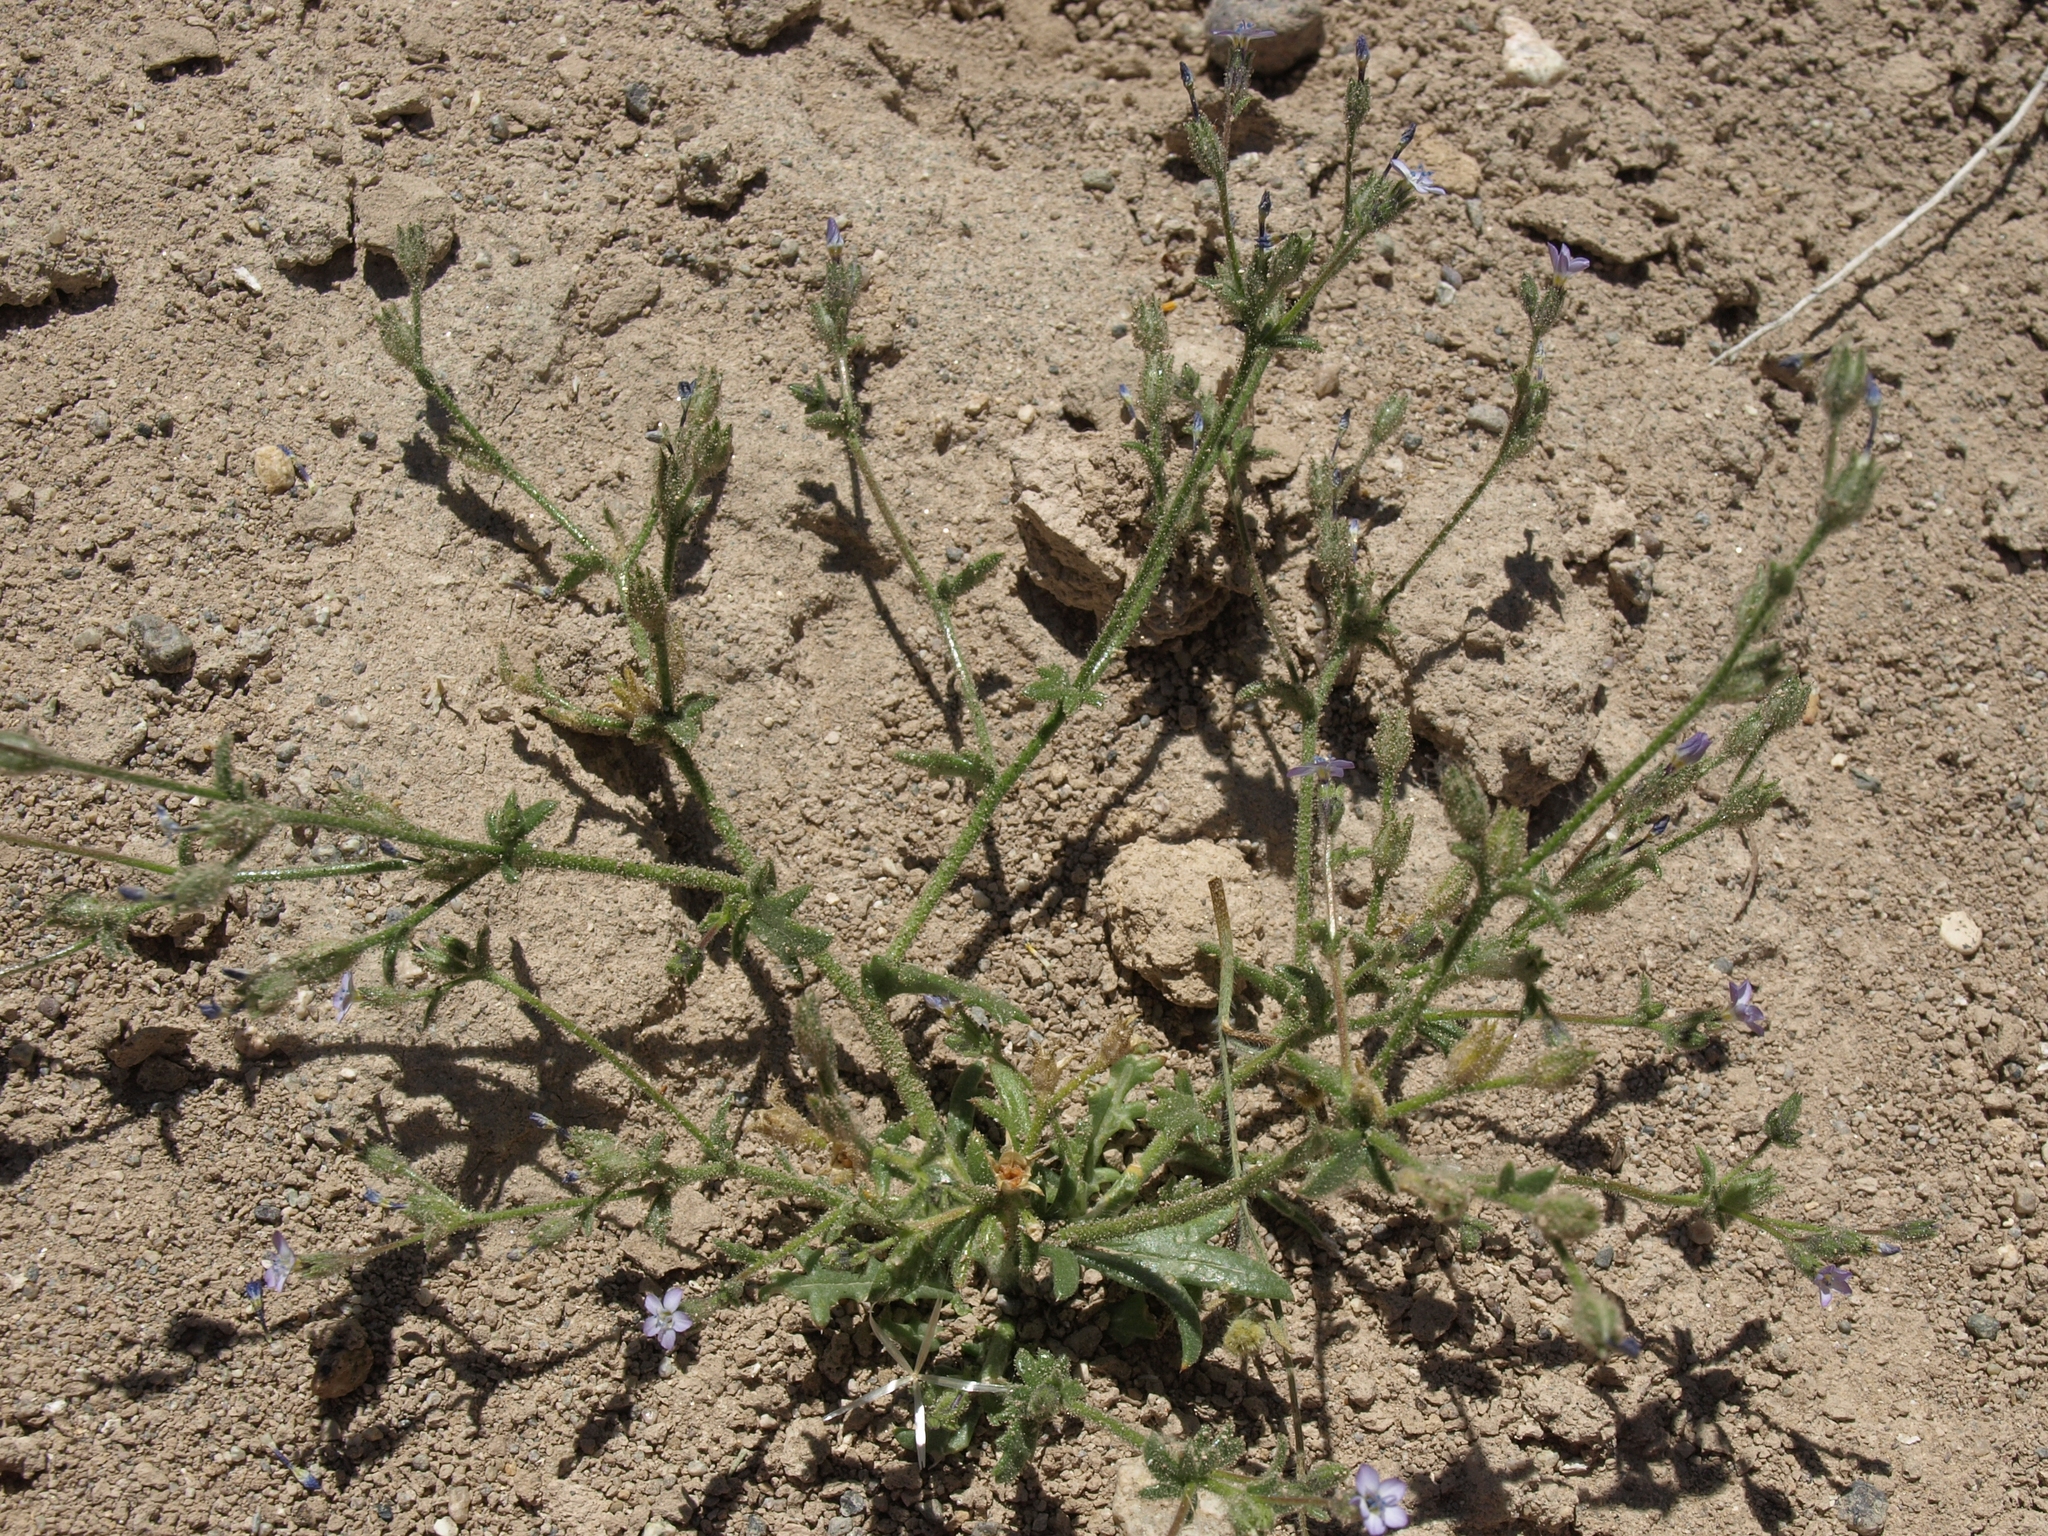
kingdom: Plantae
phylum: Tracheophyta
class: Magnoliopsida
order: Ericales
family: Polemoniaceae
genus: Gilia
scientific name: Gilia modocensis
